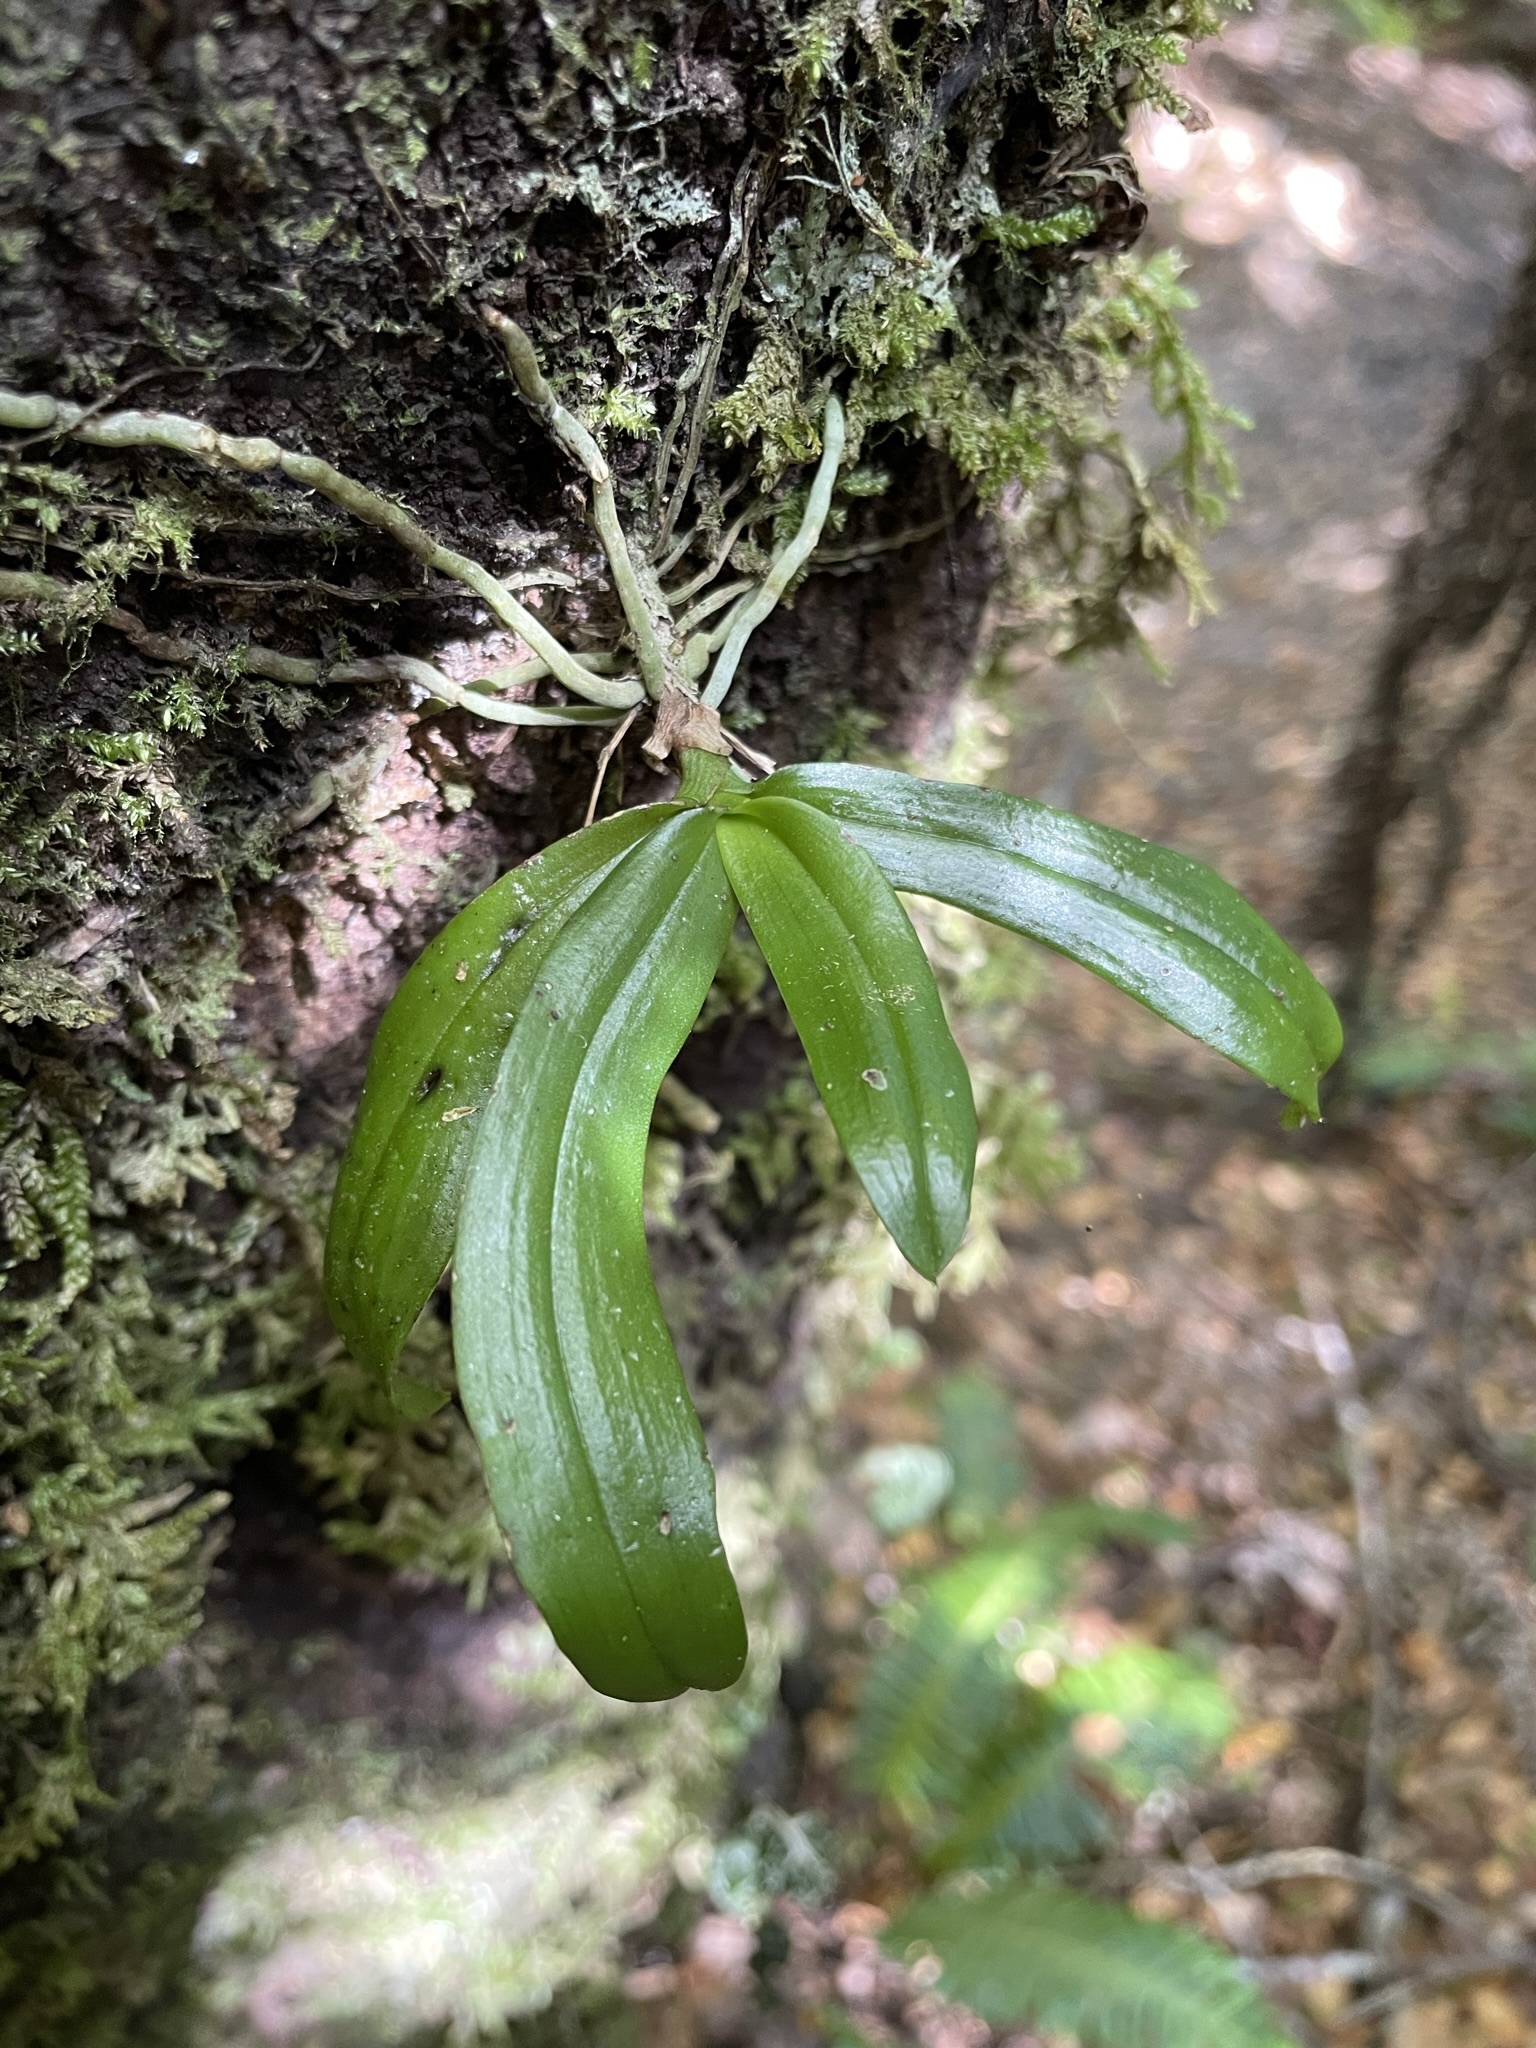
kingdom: Plantae
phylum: Tracheophyta
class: Liliopsida
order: Asparagales
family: Orchidaceae
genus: Drymoanthus
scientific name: Drymoanthus adversus
